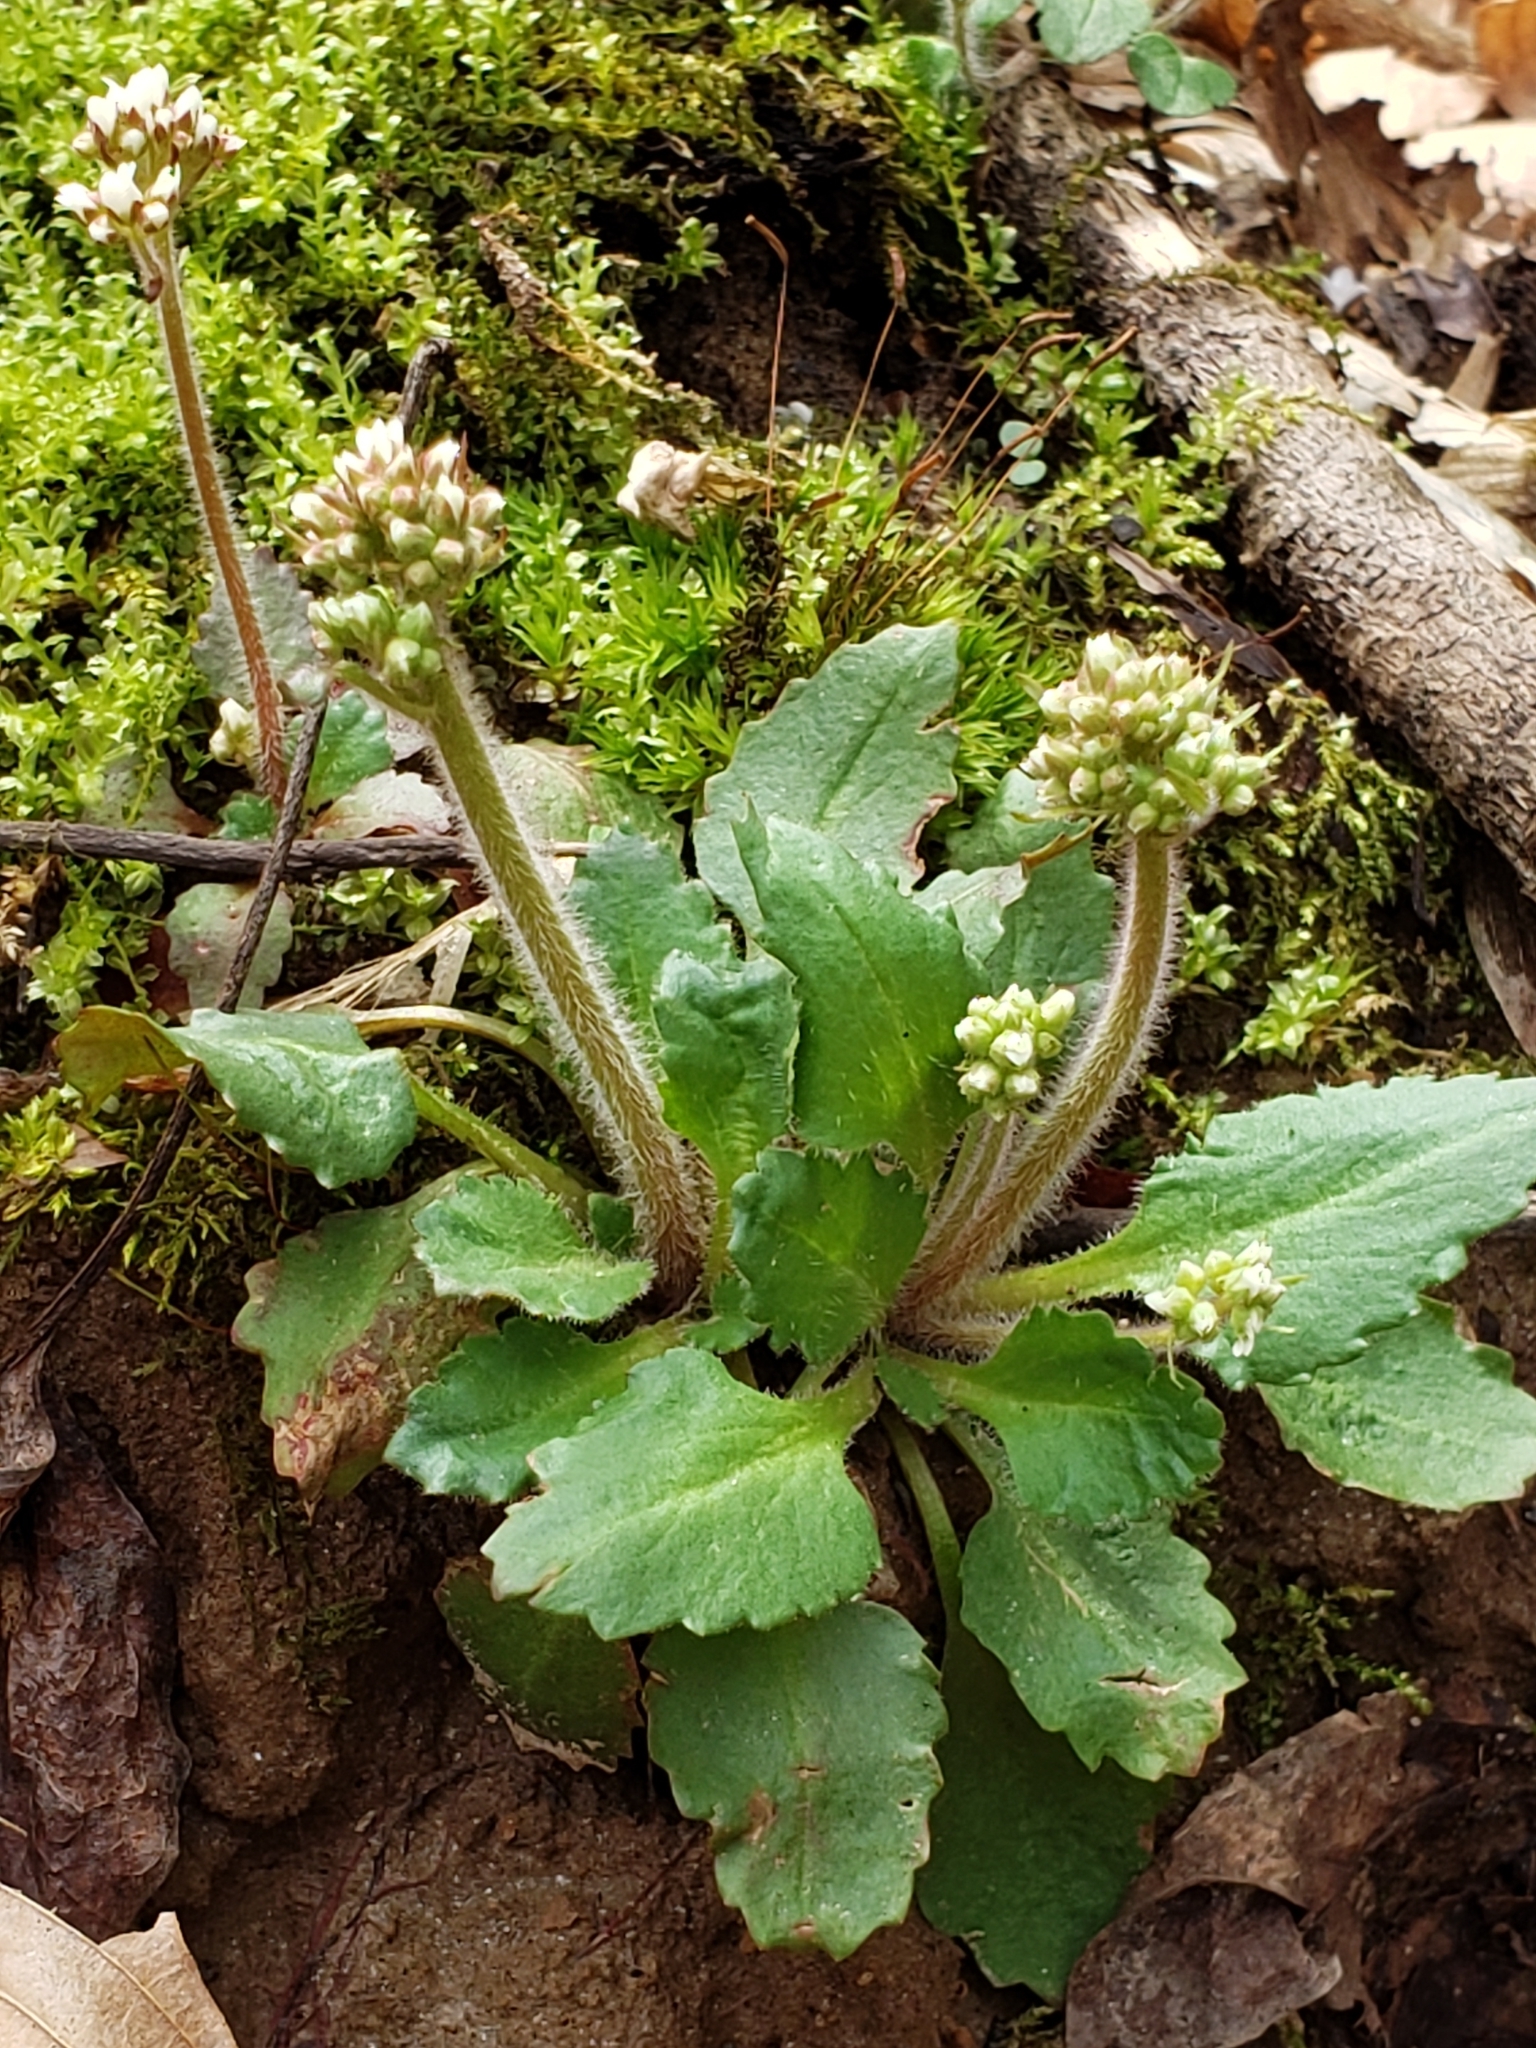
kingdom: Plantae
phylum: Tracheophyta
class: Magnoliopsida
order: Saxifragales
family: Saxifragaceae
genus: Micranthes
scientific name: Micranthes virginiensis
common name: Early saxifrage
